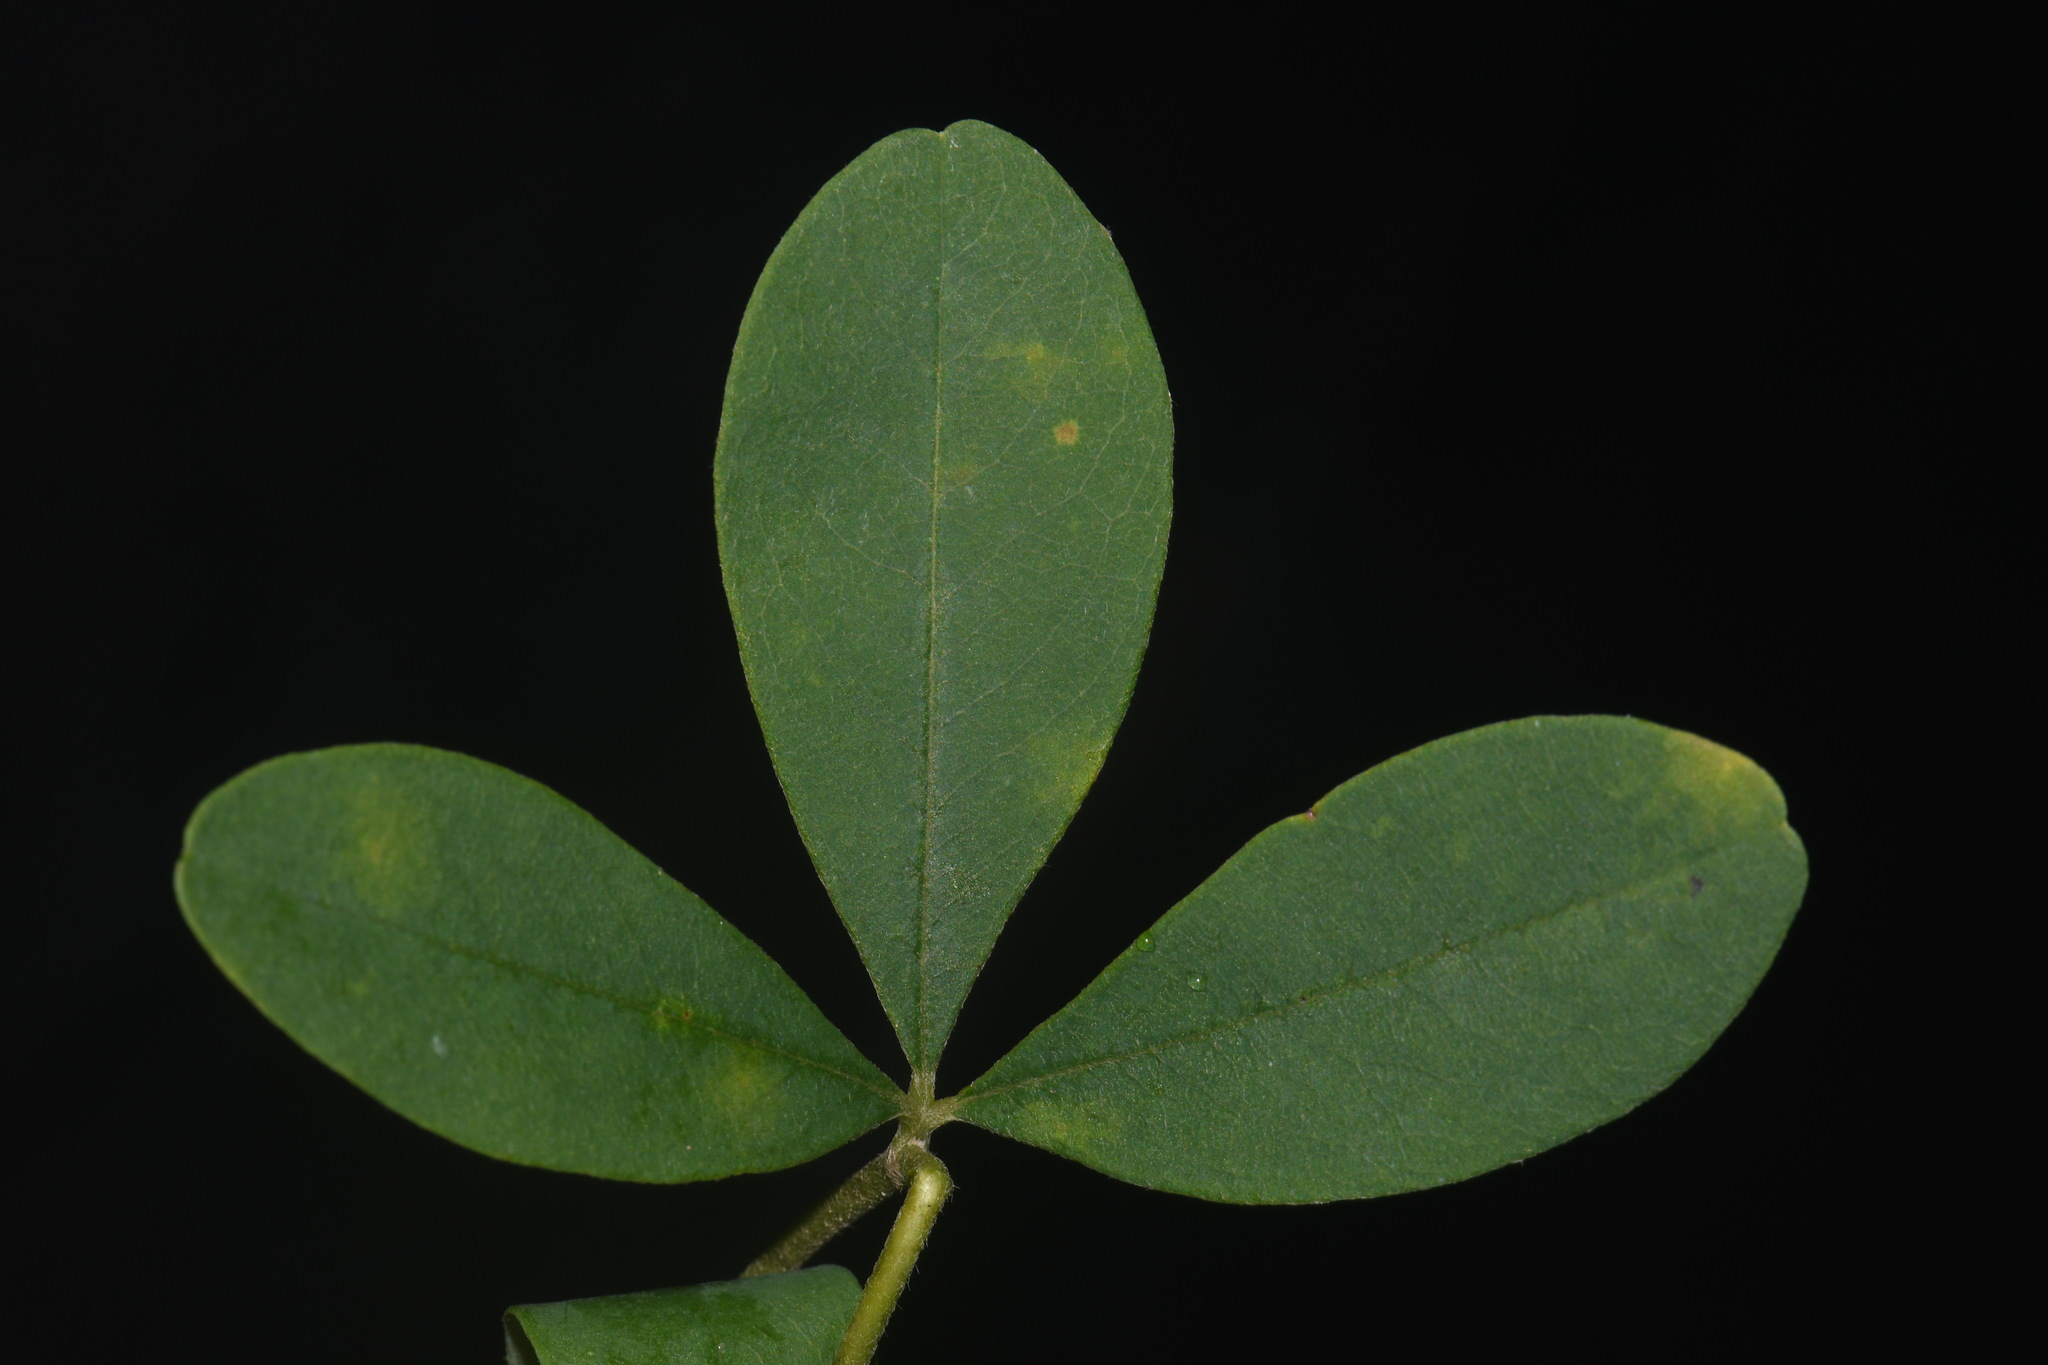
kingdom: Plantae
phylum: Tracheophyta
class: Magnoliopsida
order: Fabales
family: Fabaceae
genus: Baptisia
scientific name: Baptisia nuttalliana
